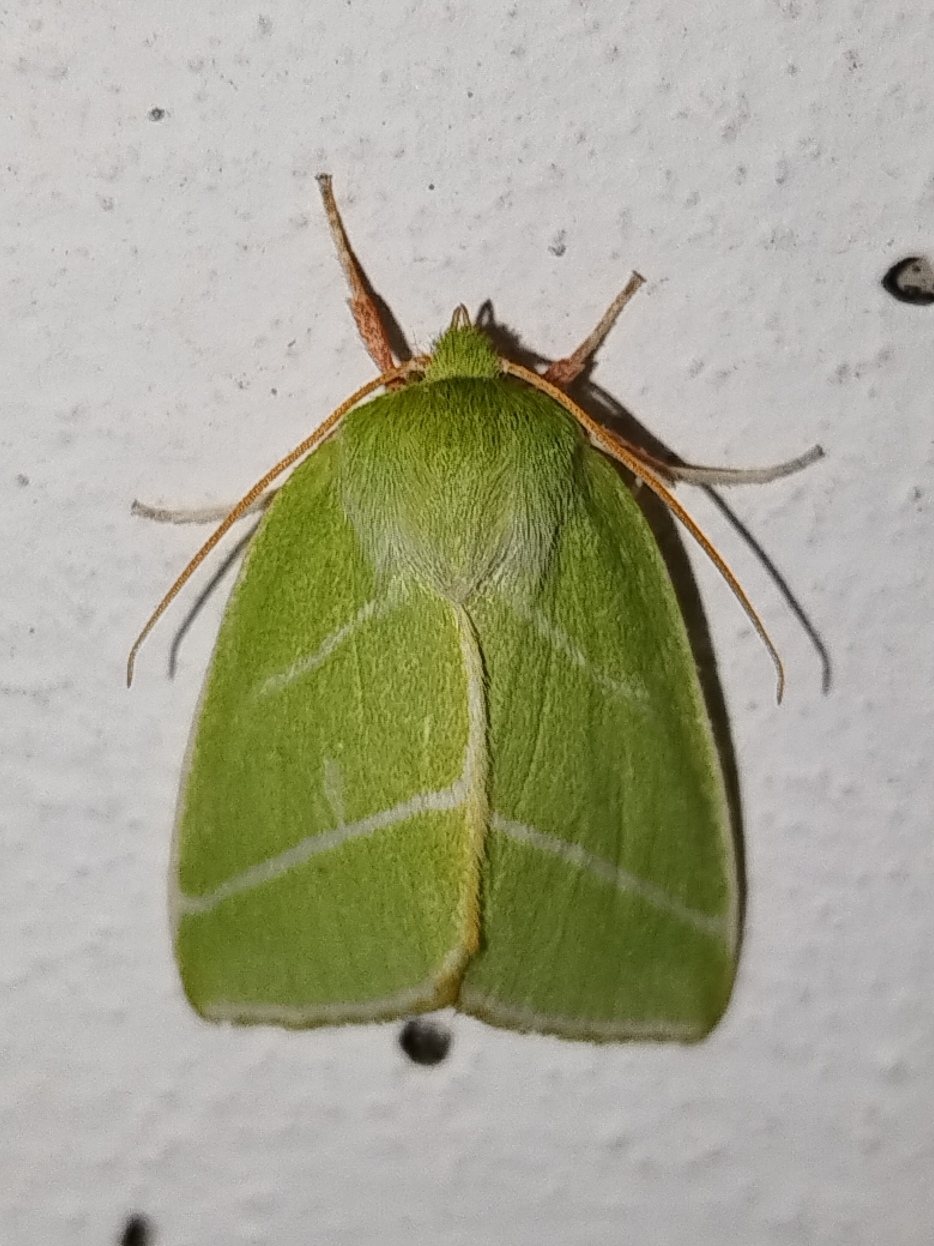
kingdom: Animalia
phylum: Arthropoda
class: Insecta
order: Lepidoptera
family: Nolidae
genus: Pseudoips
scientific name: Pseudoips prasinana
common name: Green silver-lines
